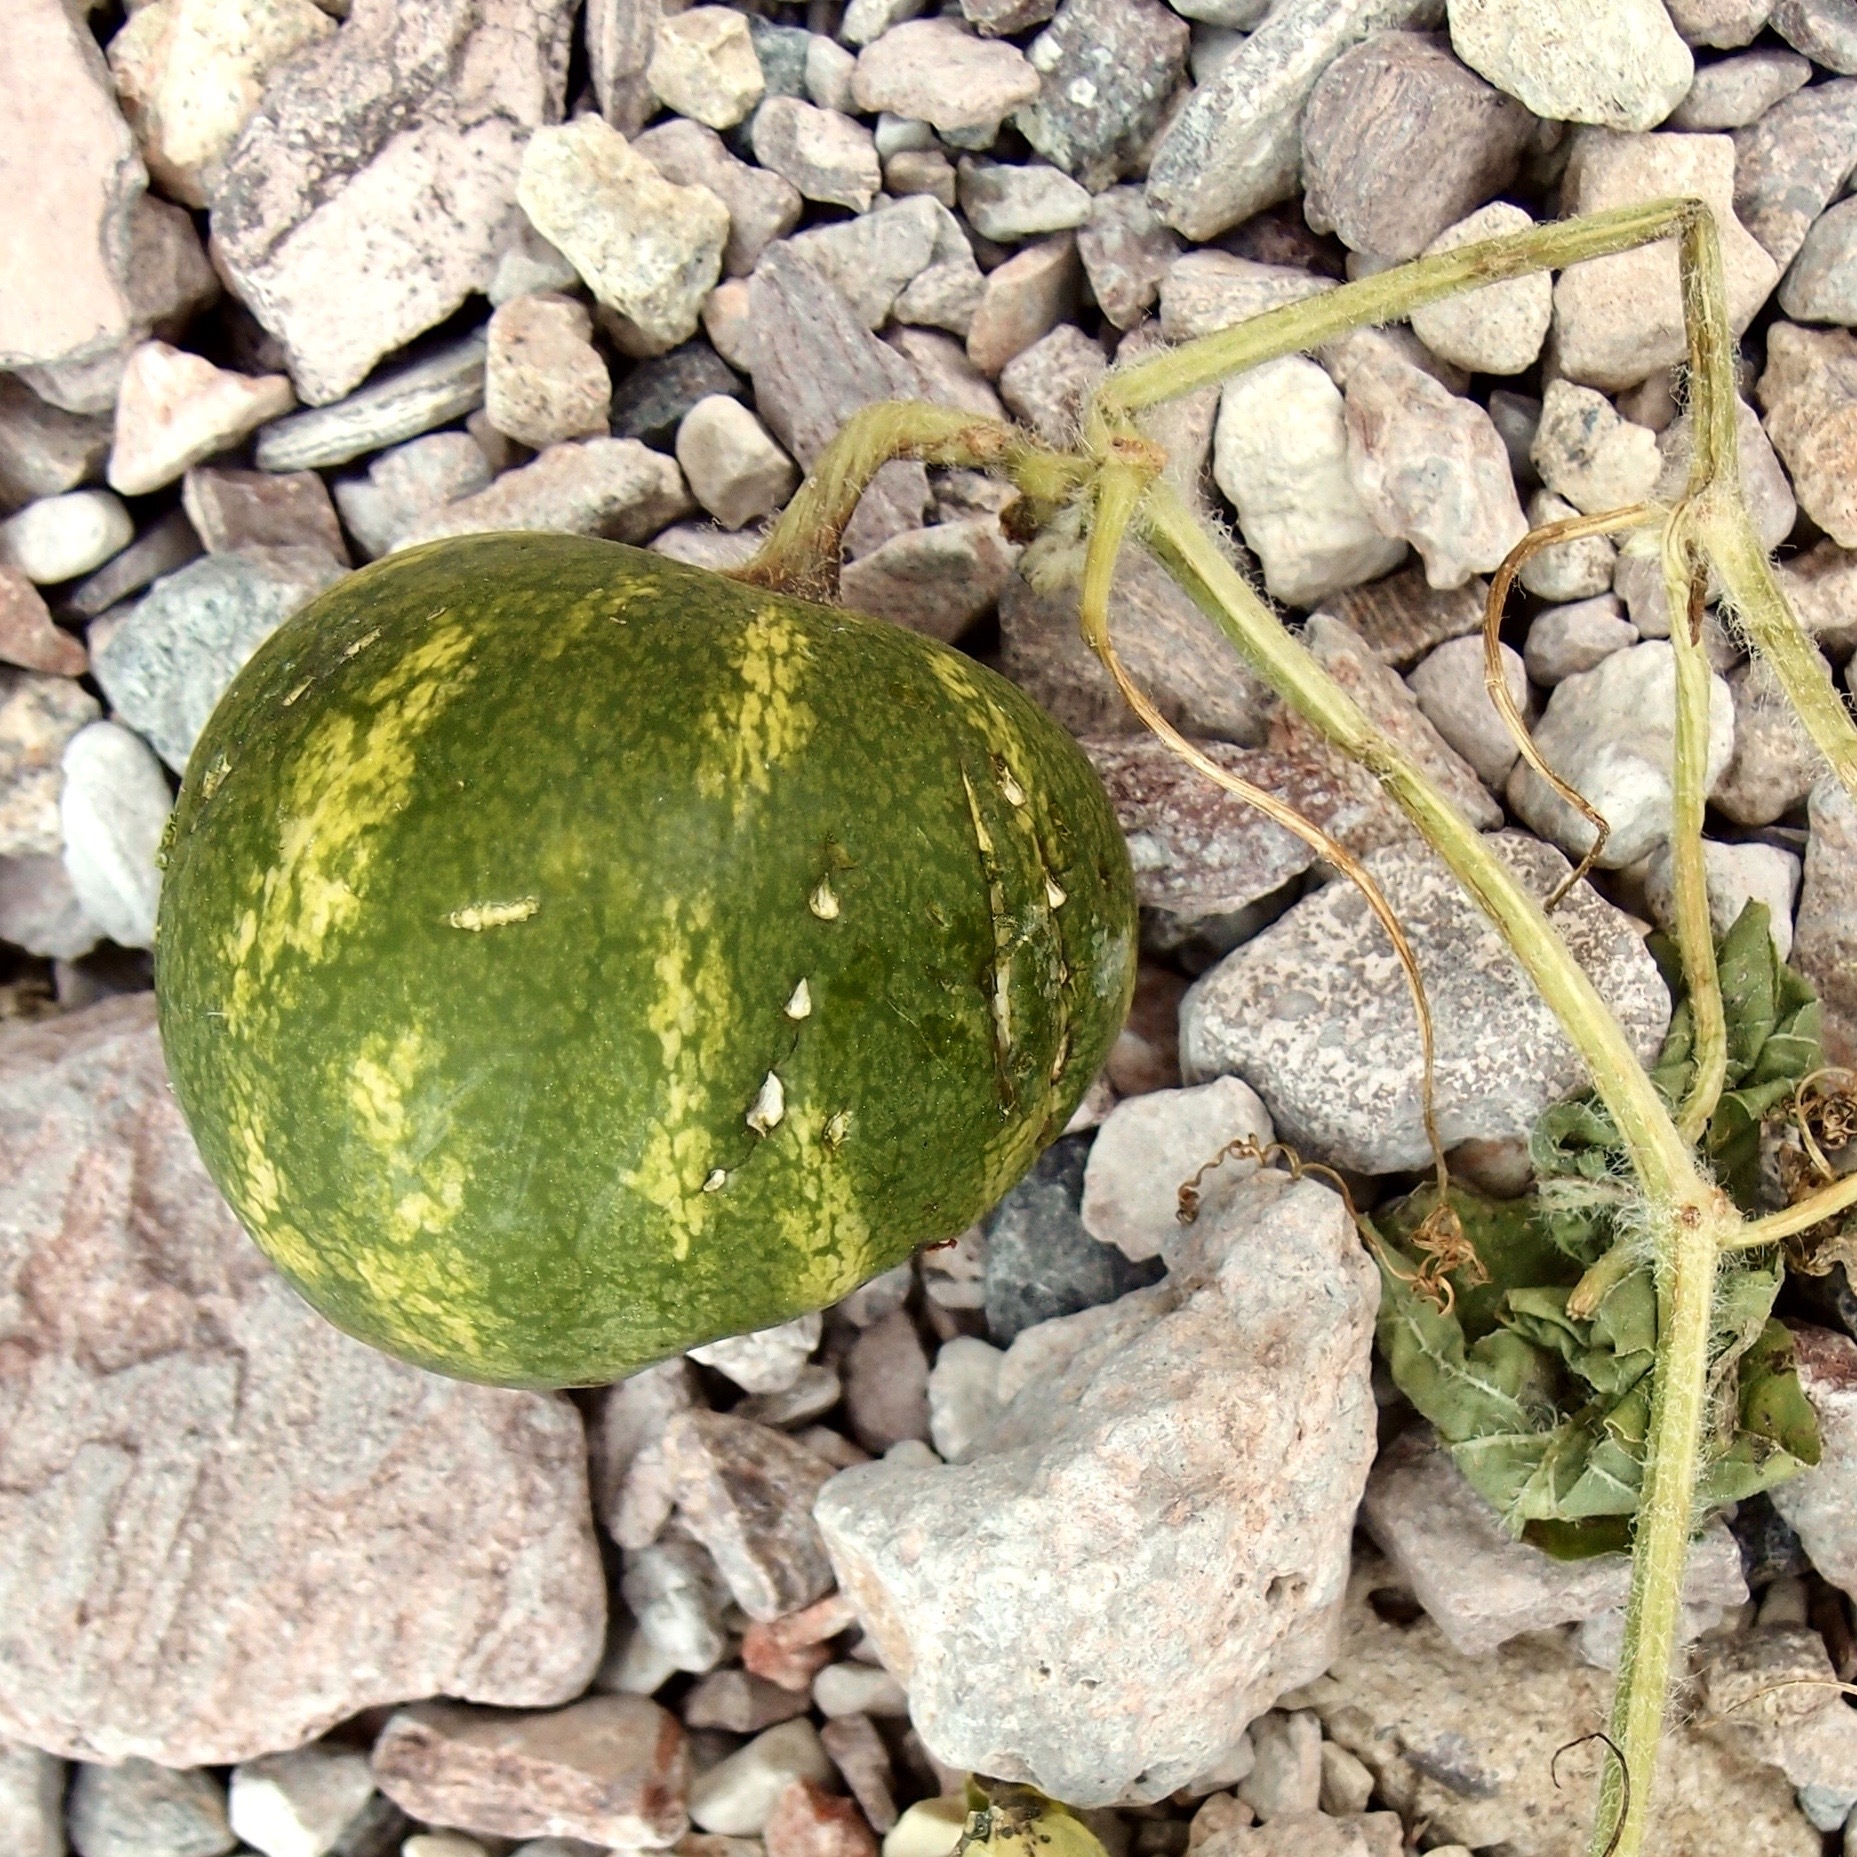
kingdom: Plantae
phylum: Tracheophyta
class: Magnoliopsida
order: Cucurbitales
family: Cucurbitaceae
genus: Citrullus
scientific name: Citrullus lanatus
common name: Watermelon
